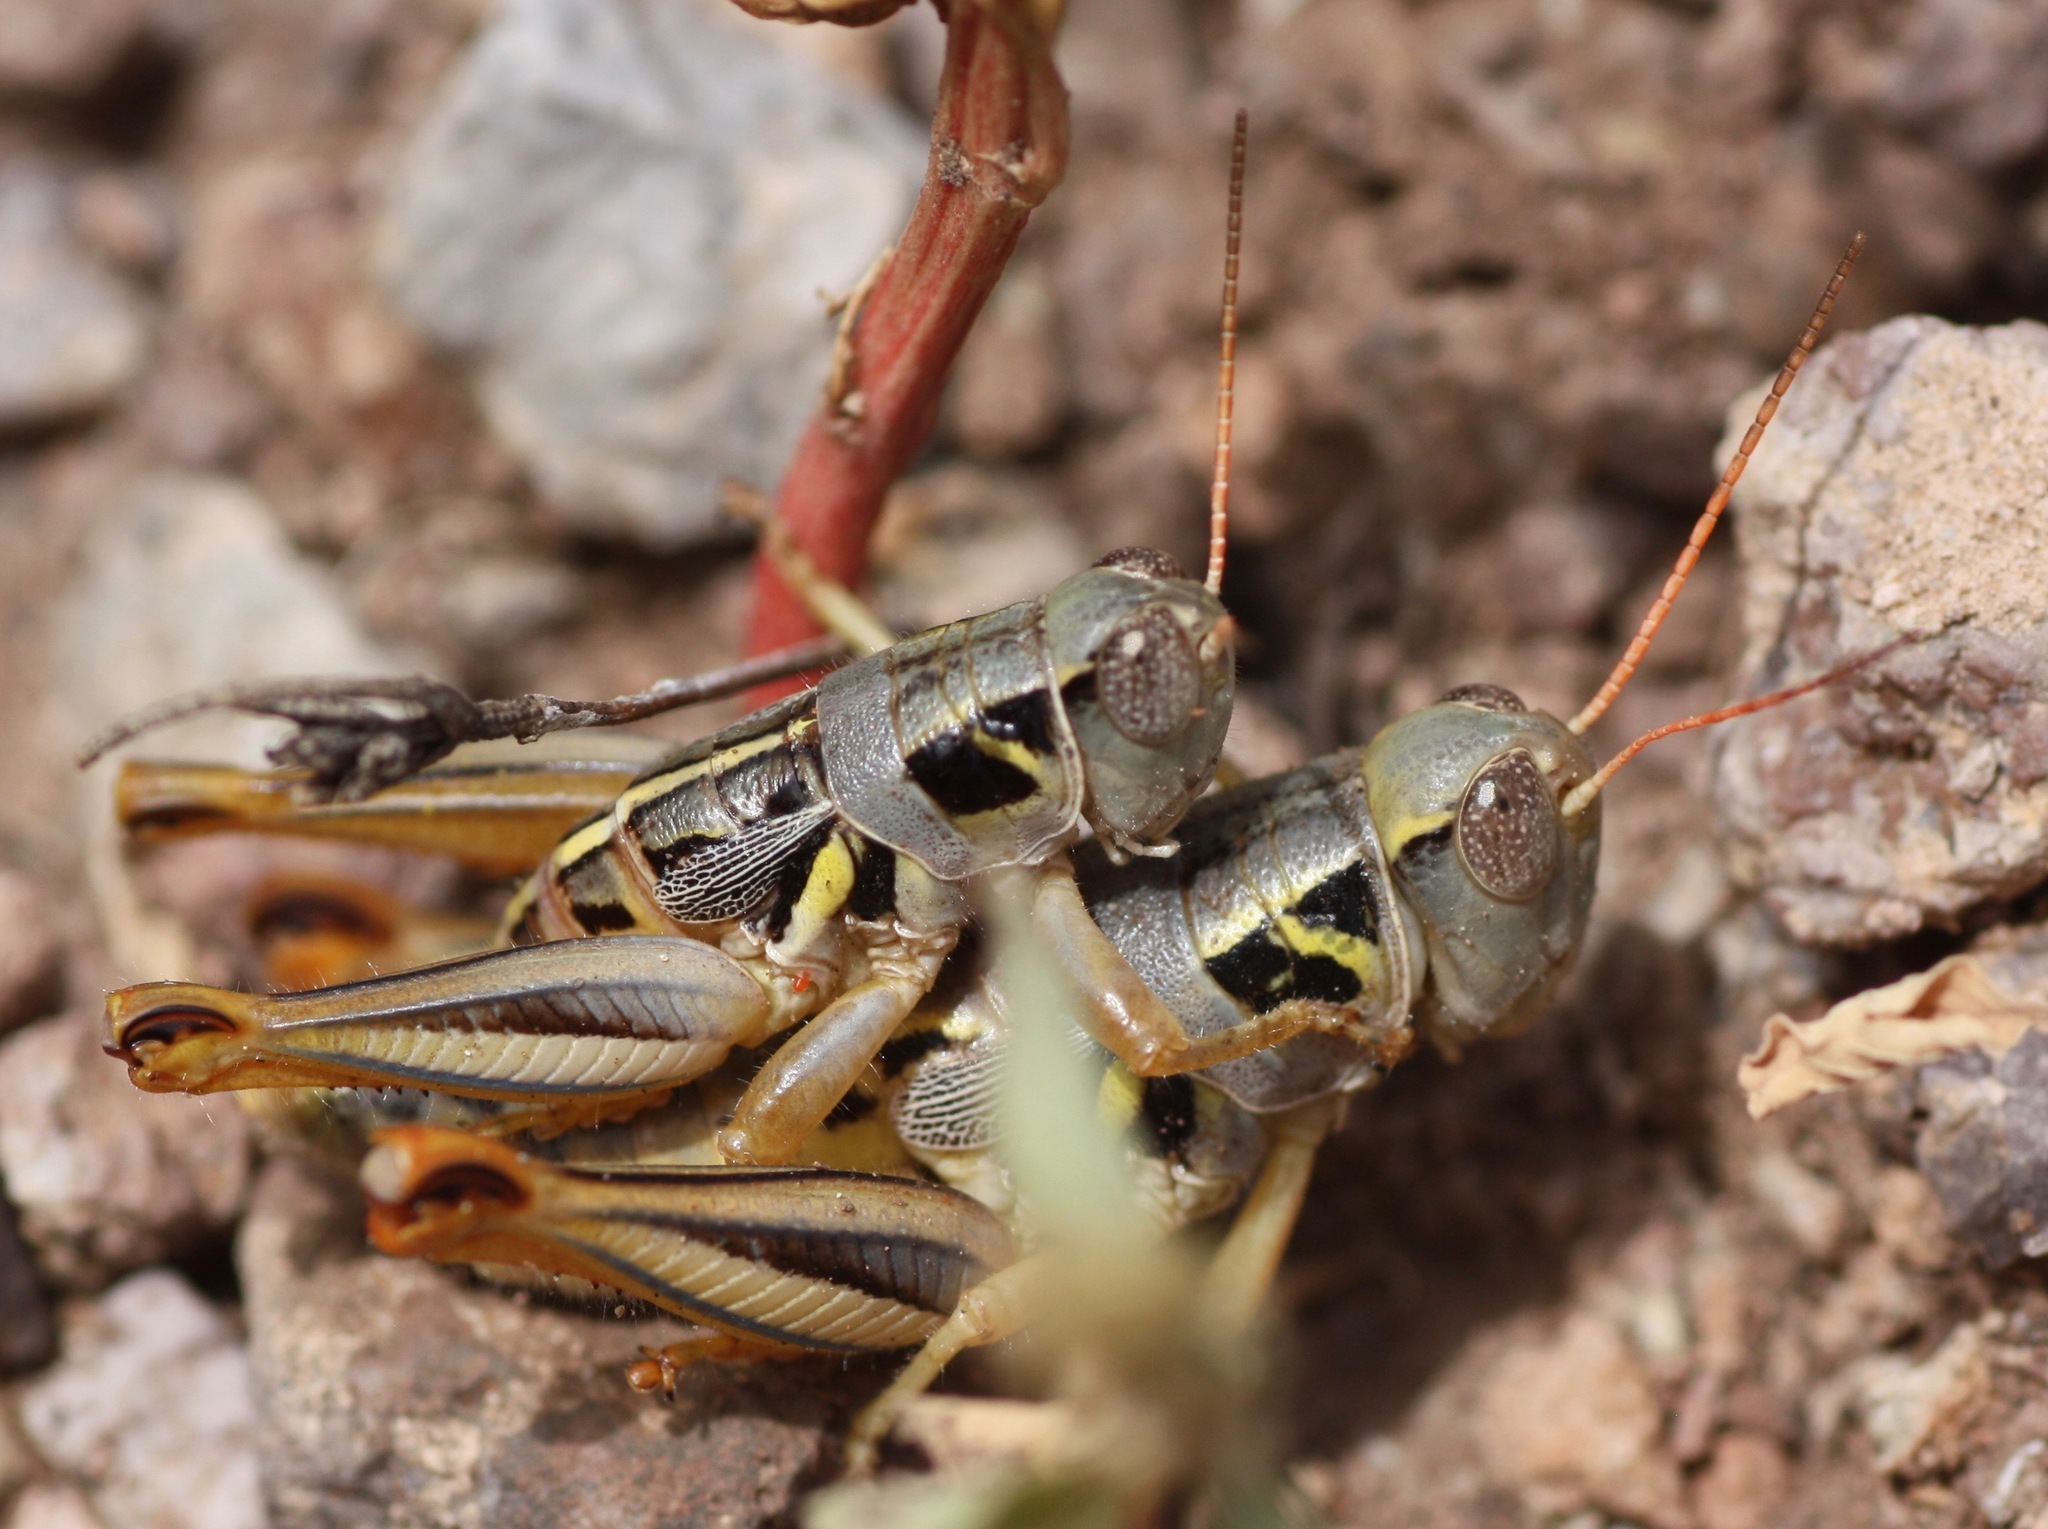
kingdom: Animalia
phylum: Arthropoda
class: Insecta
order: Orthoptera
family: Acrididae
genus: Barytettix
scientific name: Barytettix humphreysii
